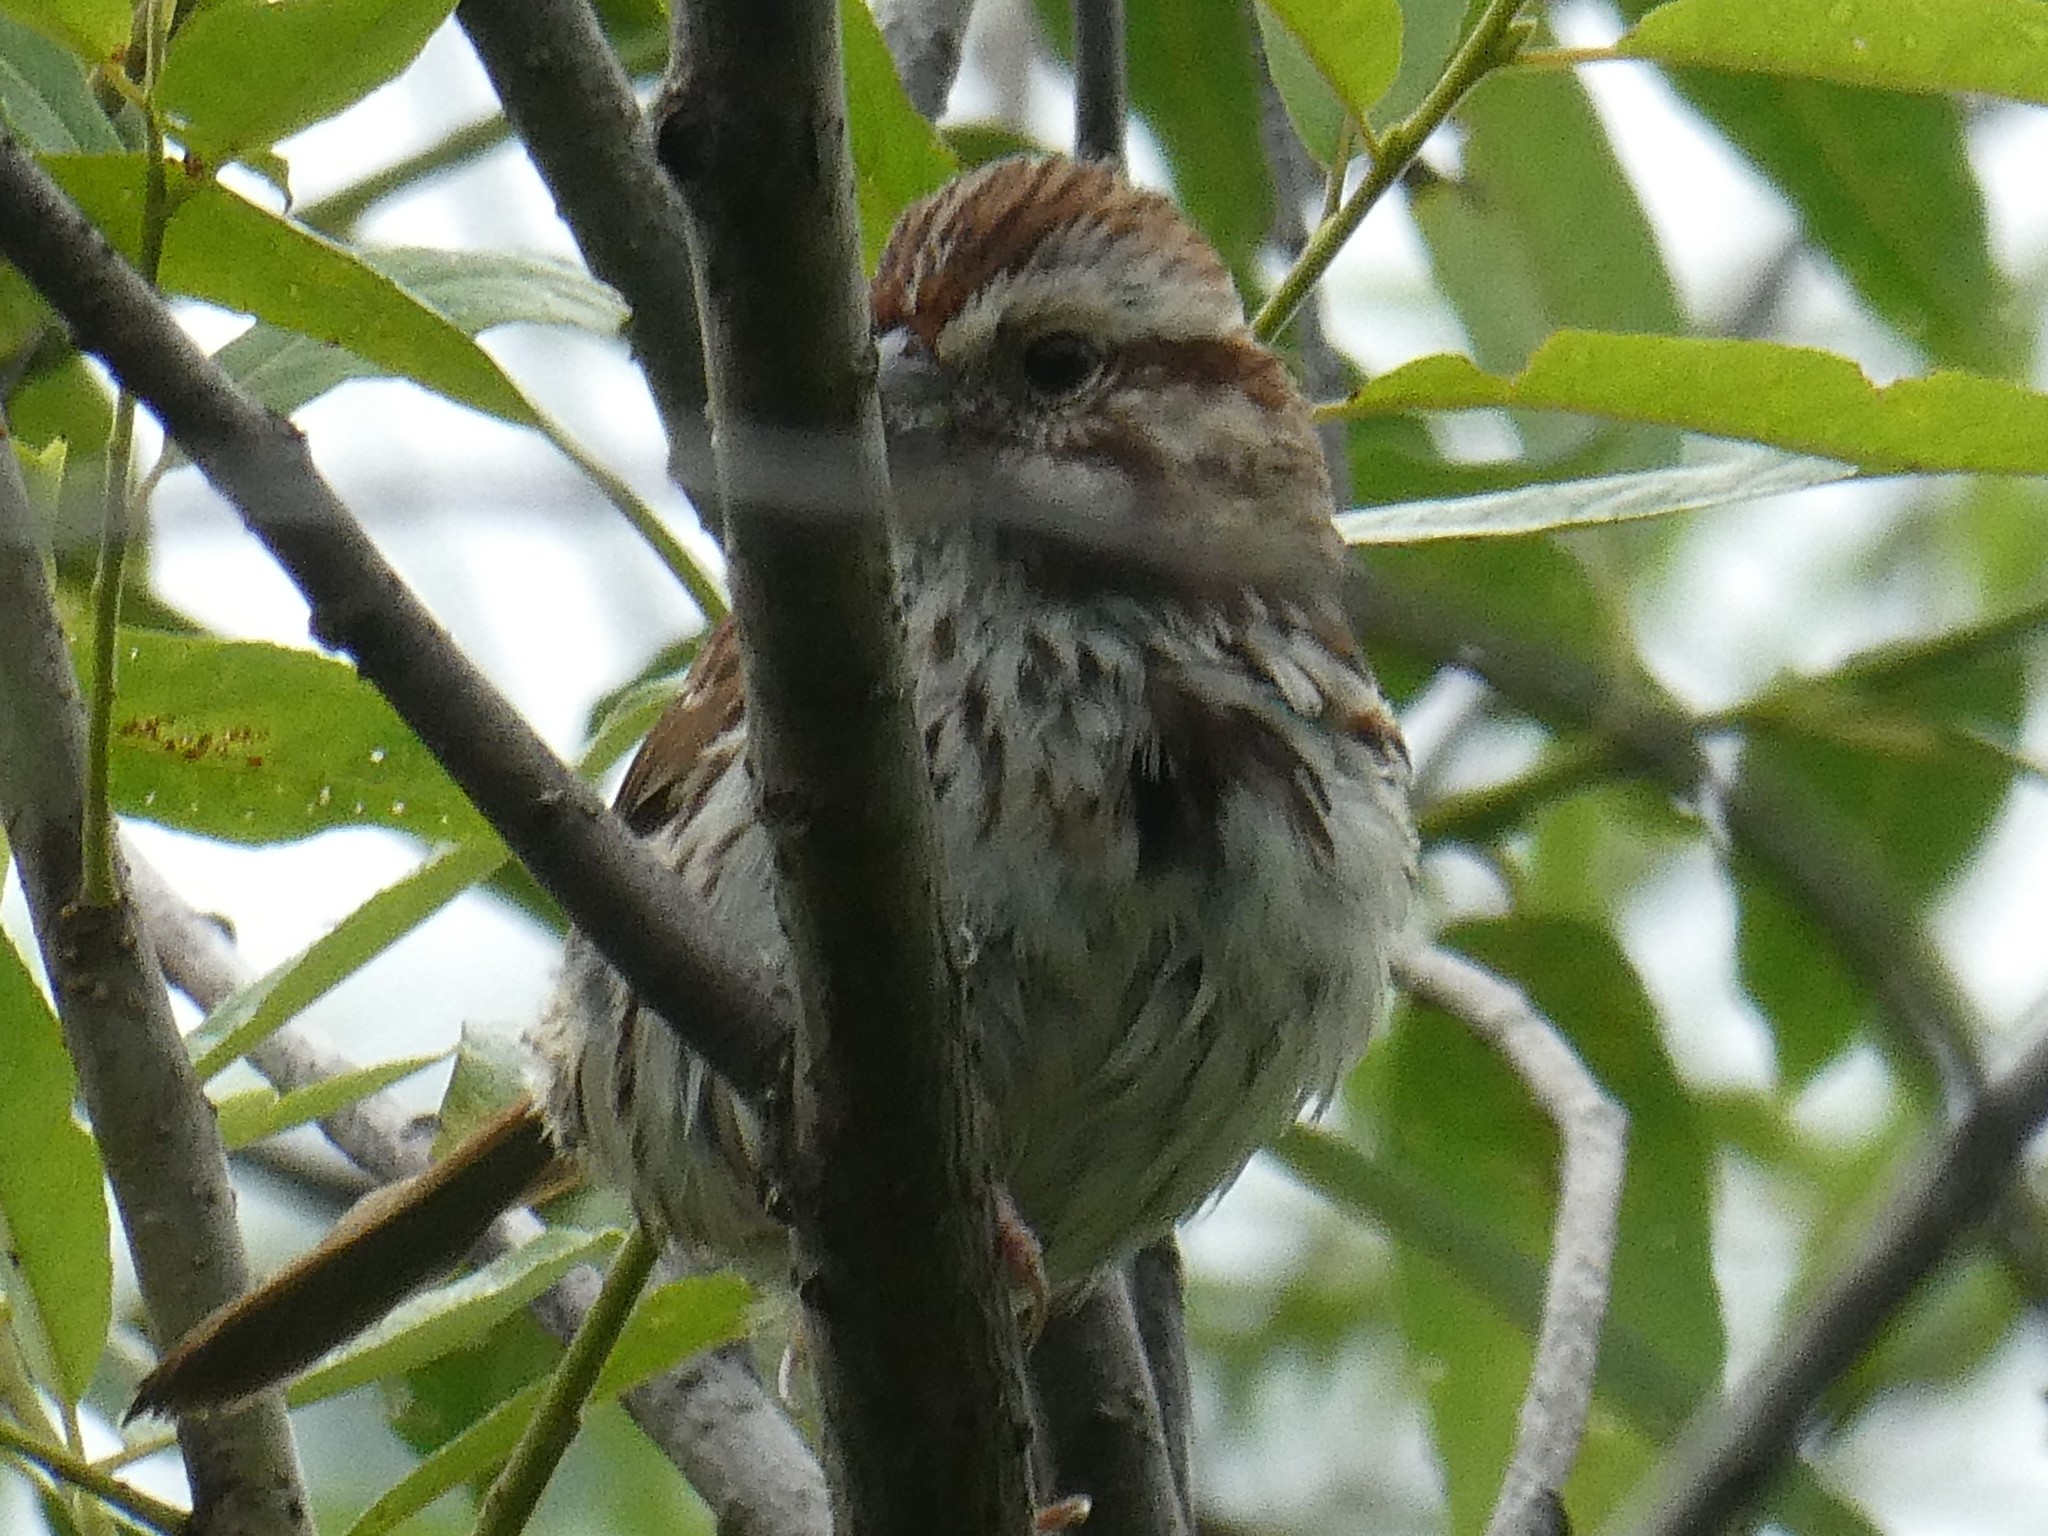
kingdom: Animalia
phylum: Chordata
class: Aves
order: Passeriformes
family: Passerellidae
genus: Melospiza
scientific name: Melospiza melodia
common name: Song sparrow
